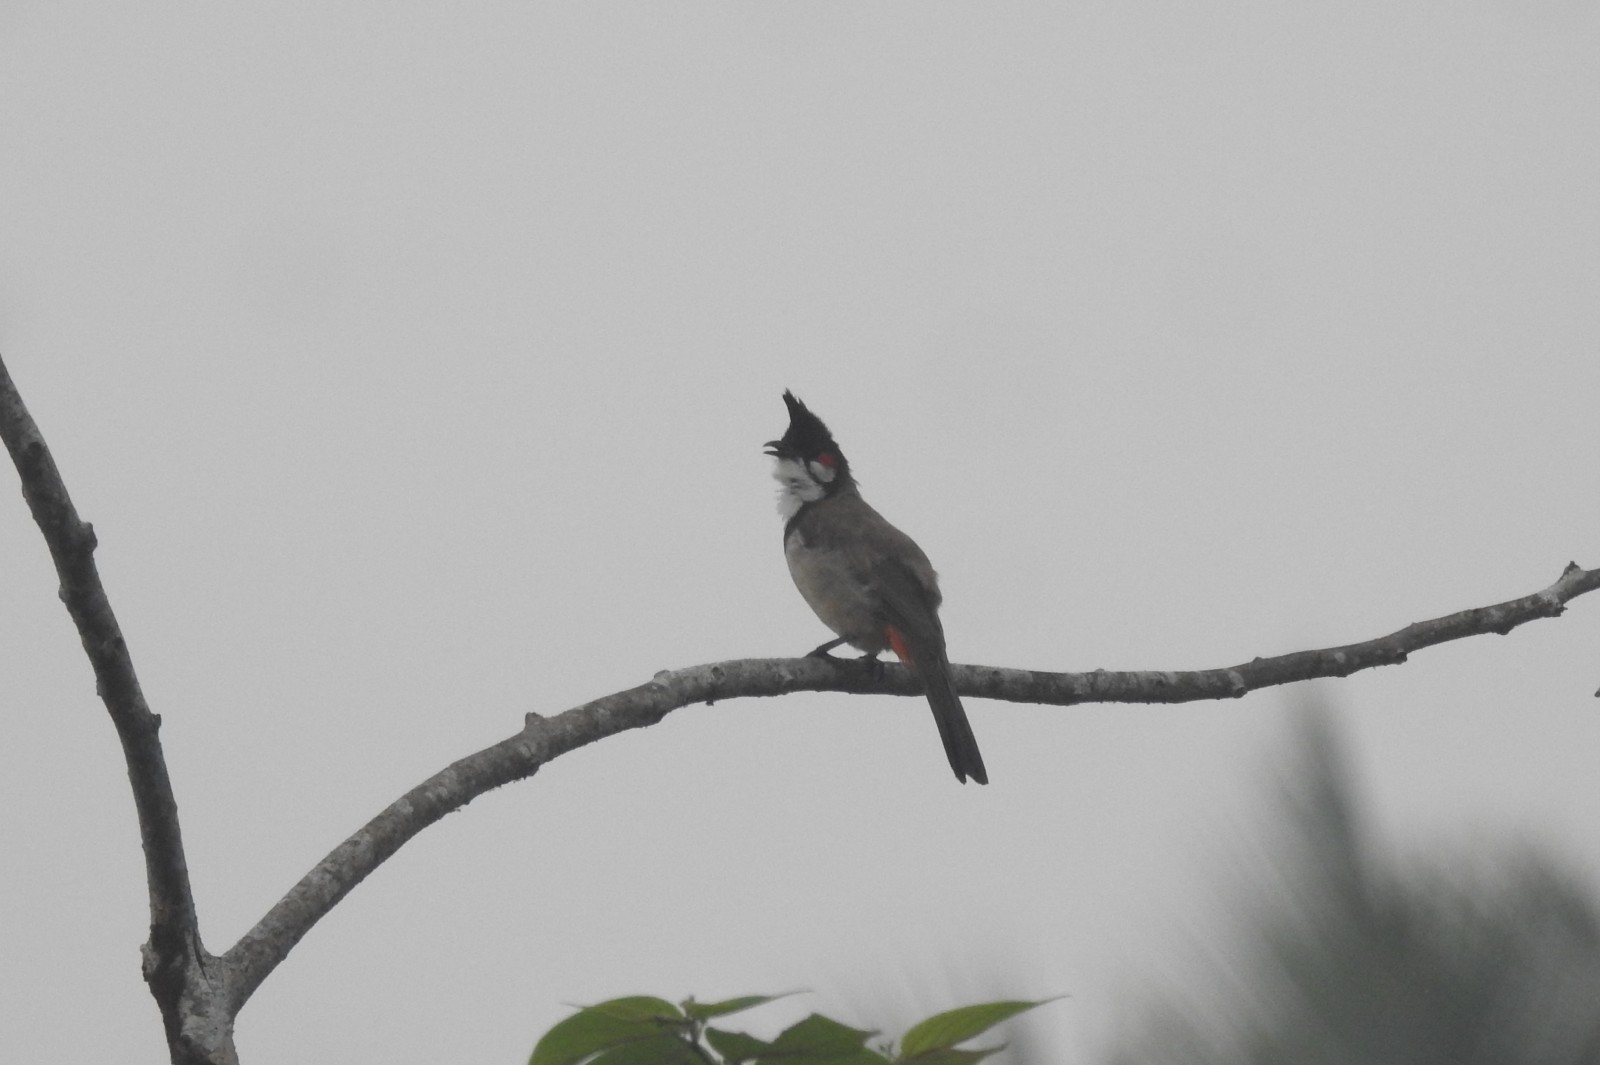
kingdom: Animalia
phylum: Chordata
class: Aves
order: Passeriformes
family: Pycnonotidae
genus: Pycnonotus
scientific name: Pycnonotus jocosus
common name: Red-whiskered bulbul
